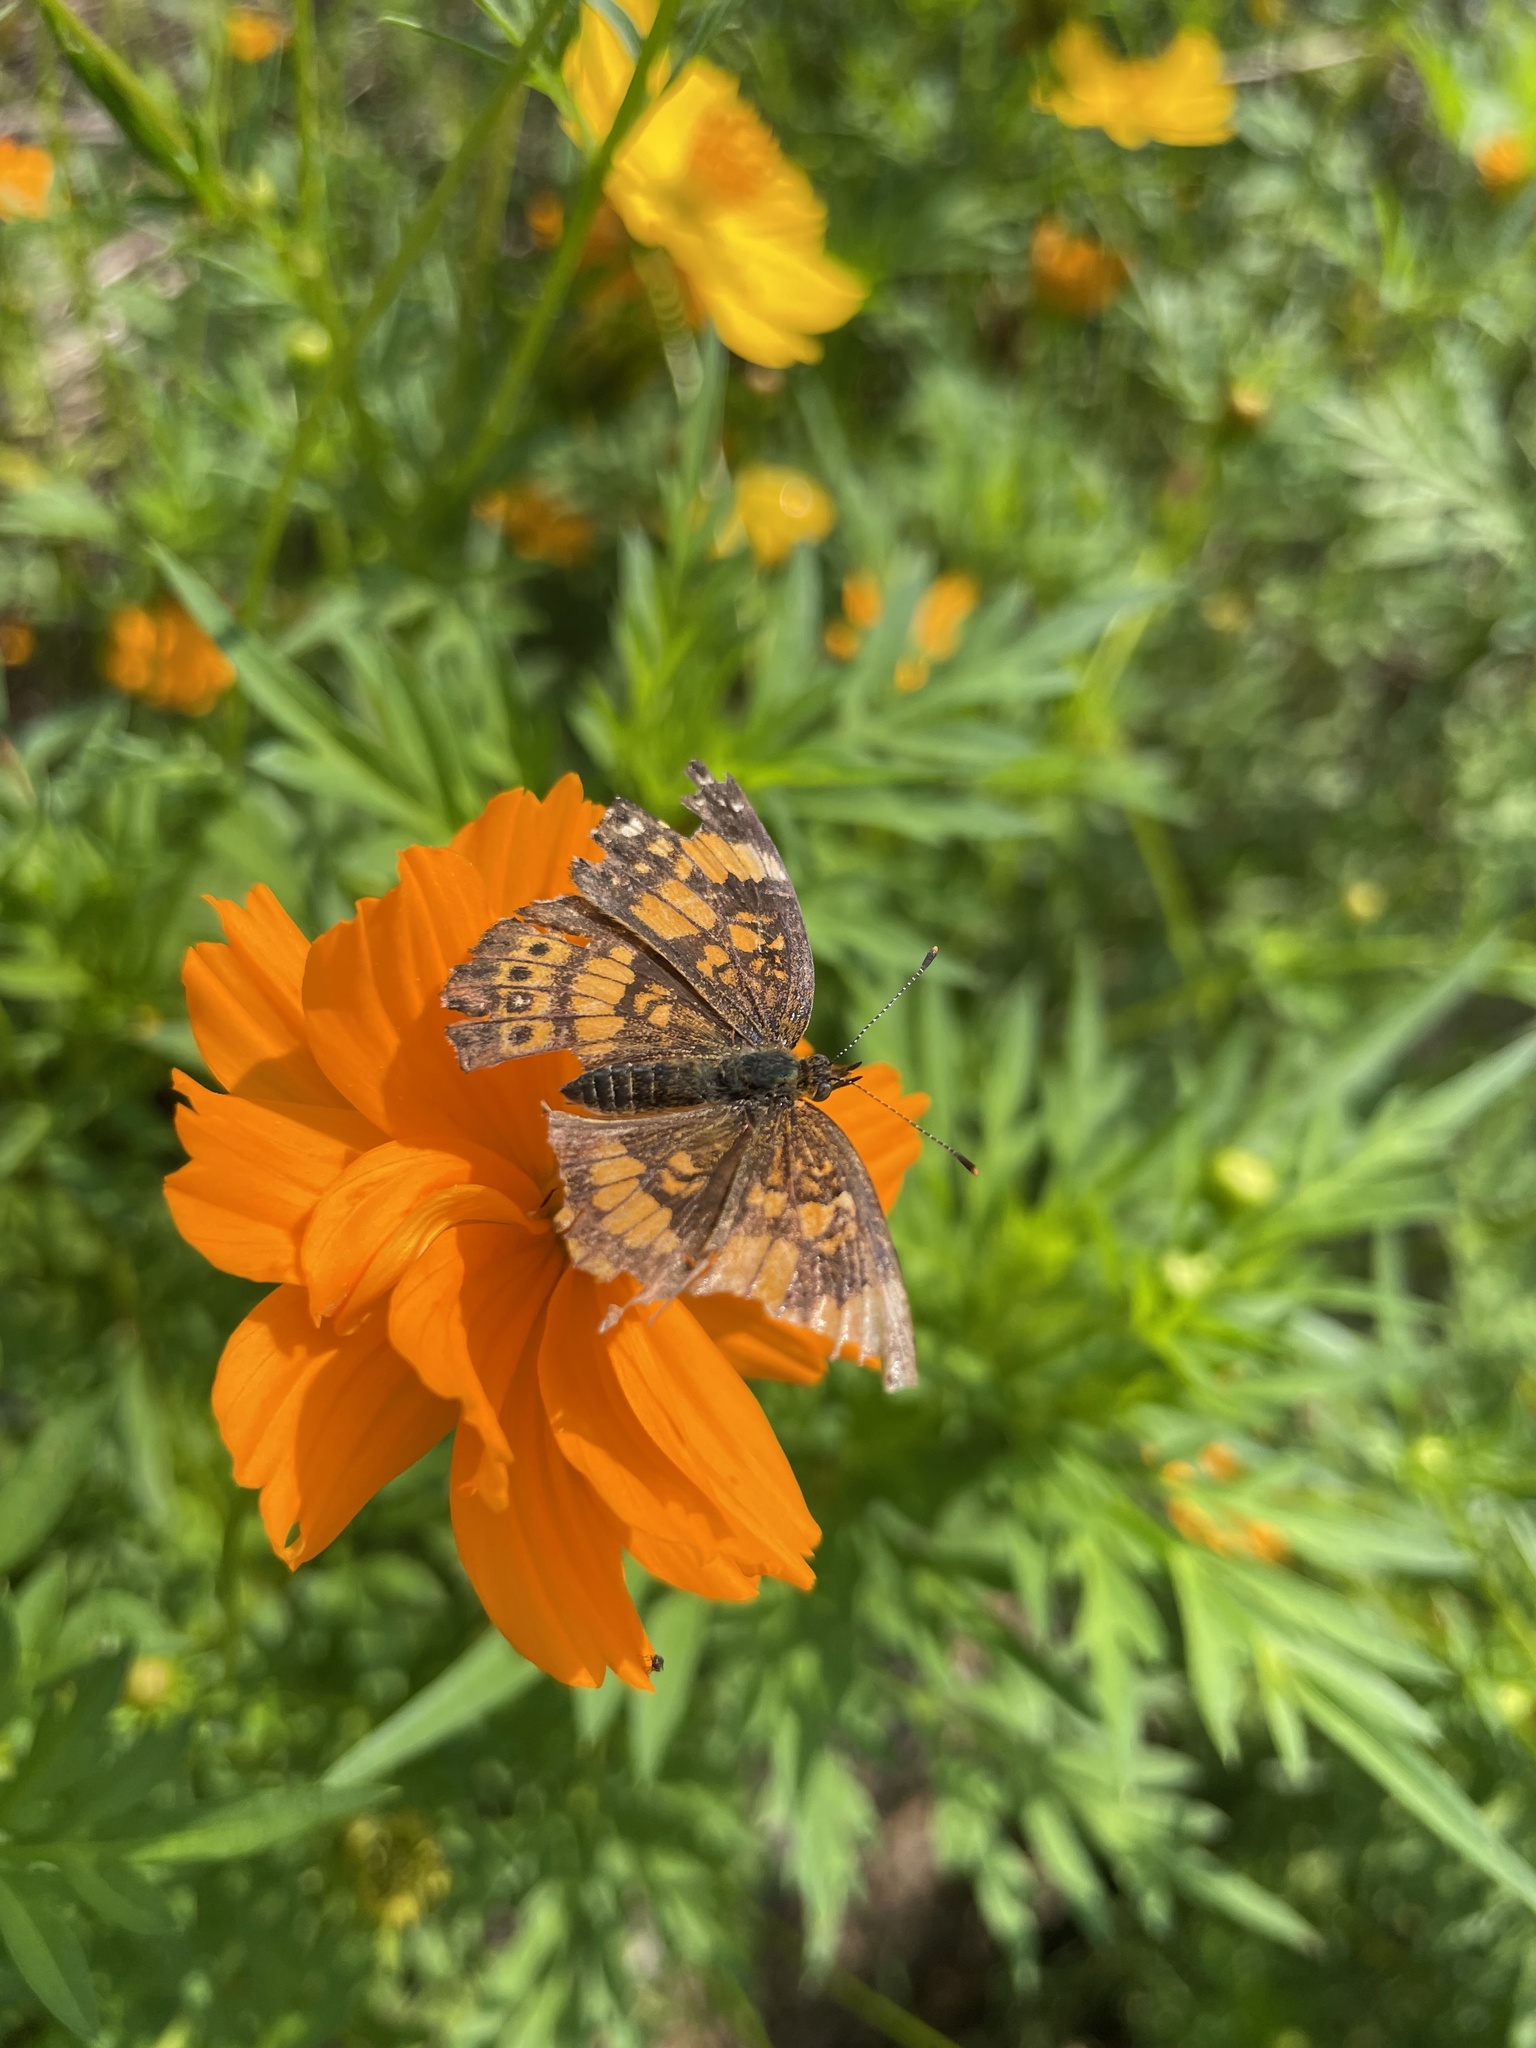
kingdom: Animalia
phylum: Arthropoda
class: Insecta
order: Lepidoptera
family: Nymphalidae
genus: Chlosyne
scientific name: Chlosyne nycteis
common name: Silvery checkerspot
